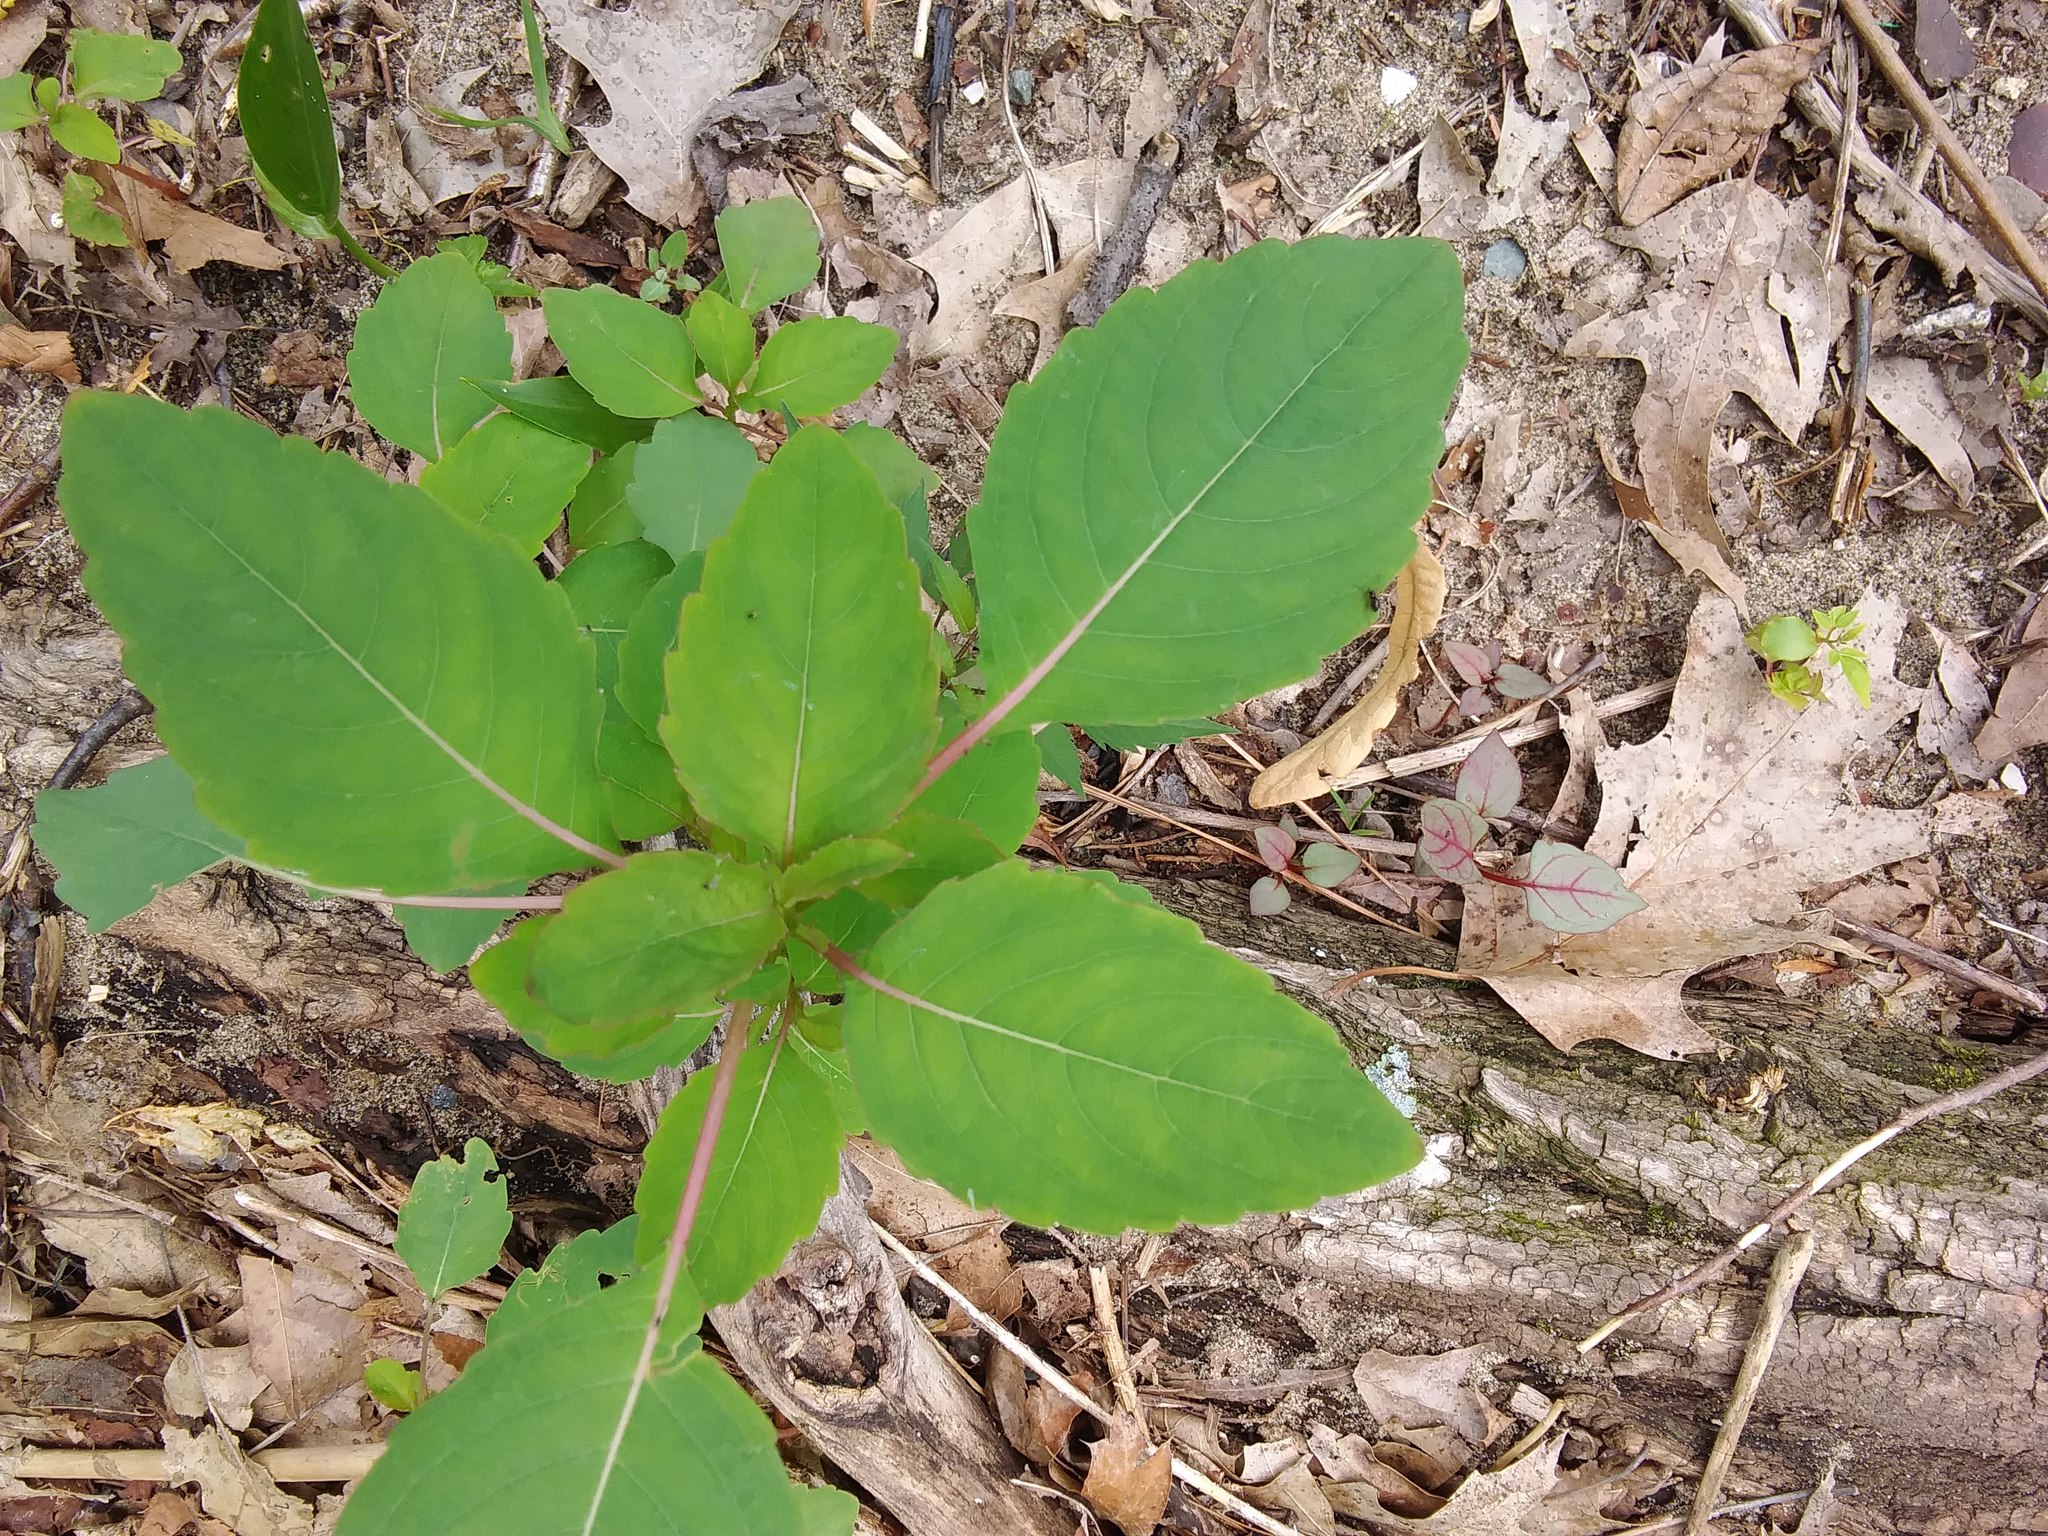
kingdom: Plantae
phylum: Tracheophyta
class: Magnoliopsida
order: Ericales
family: Balsaminaceae
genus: Impatiens
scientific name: Impatiens
